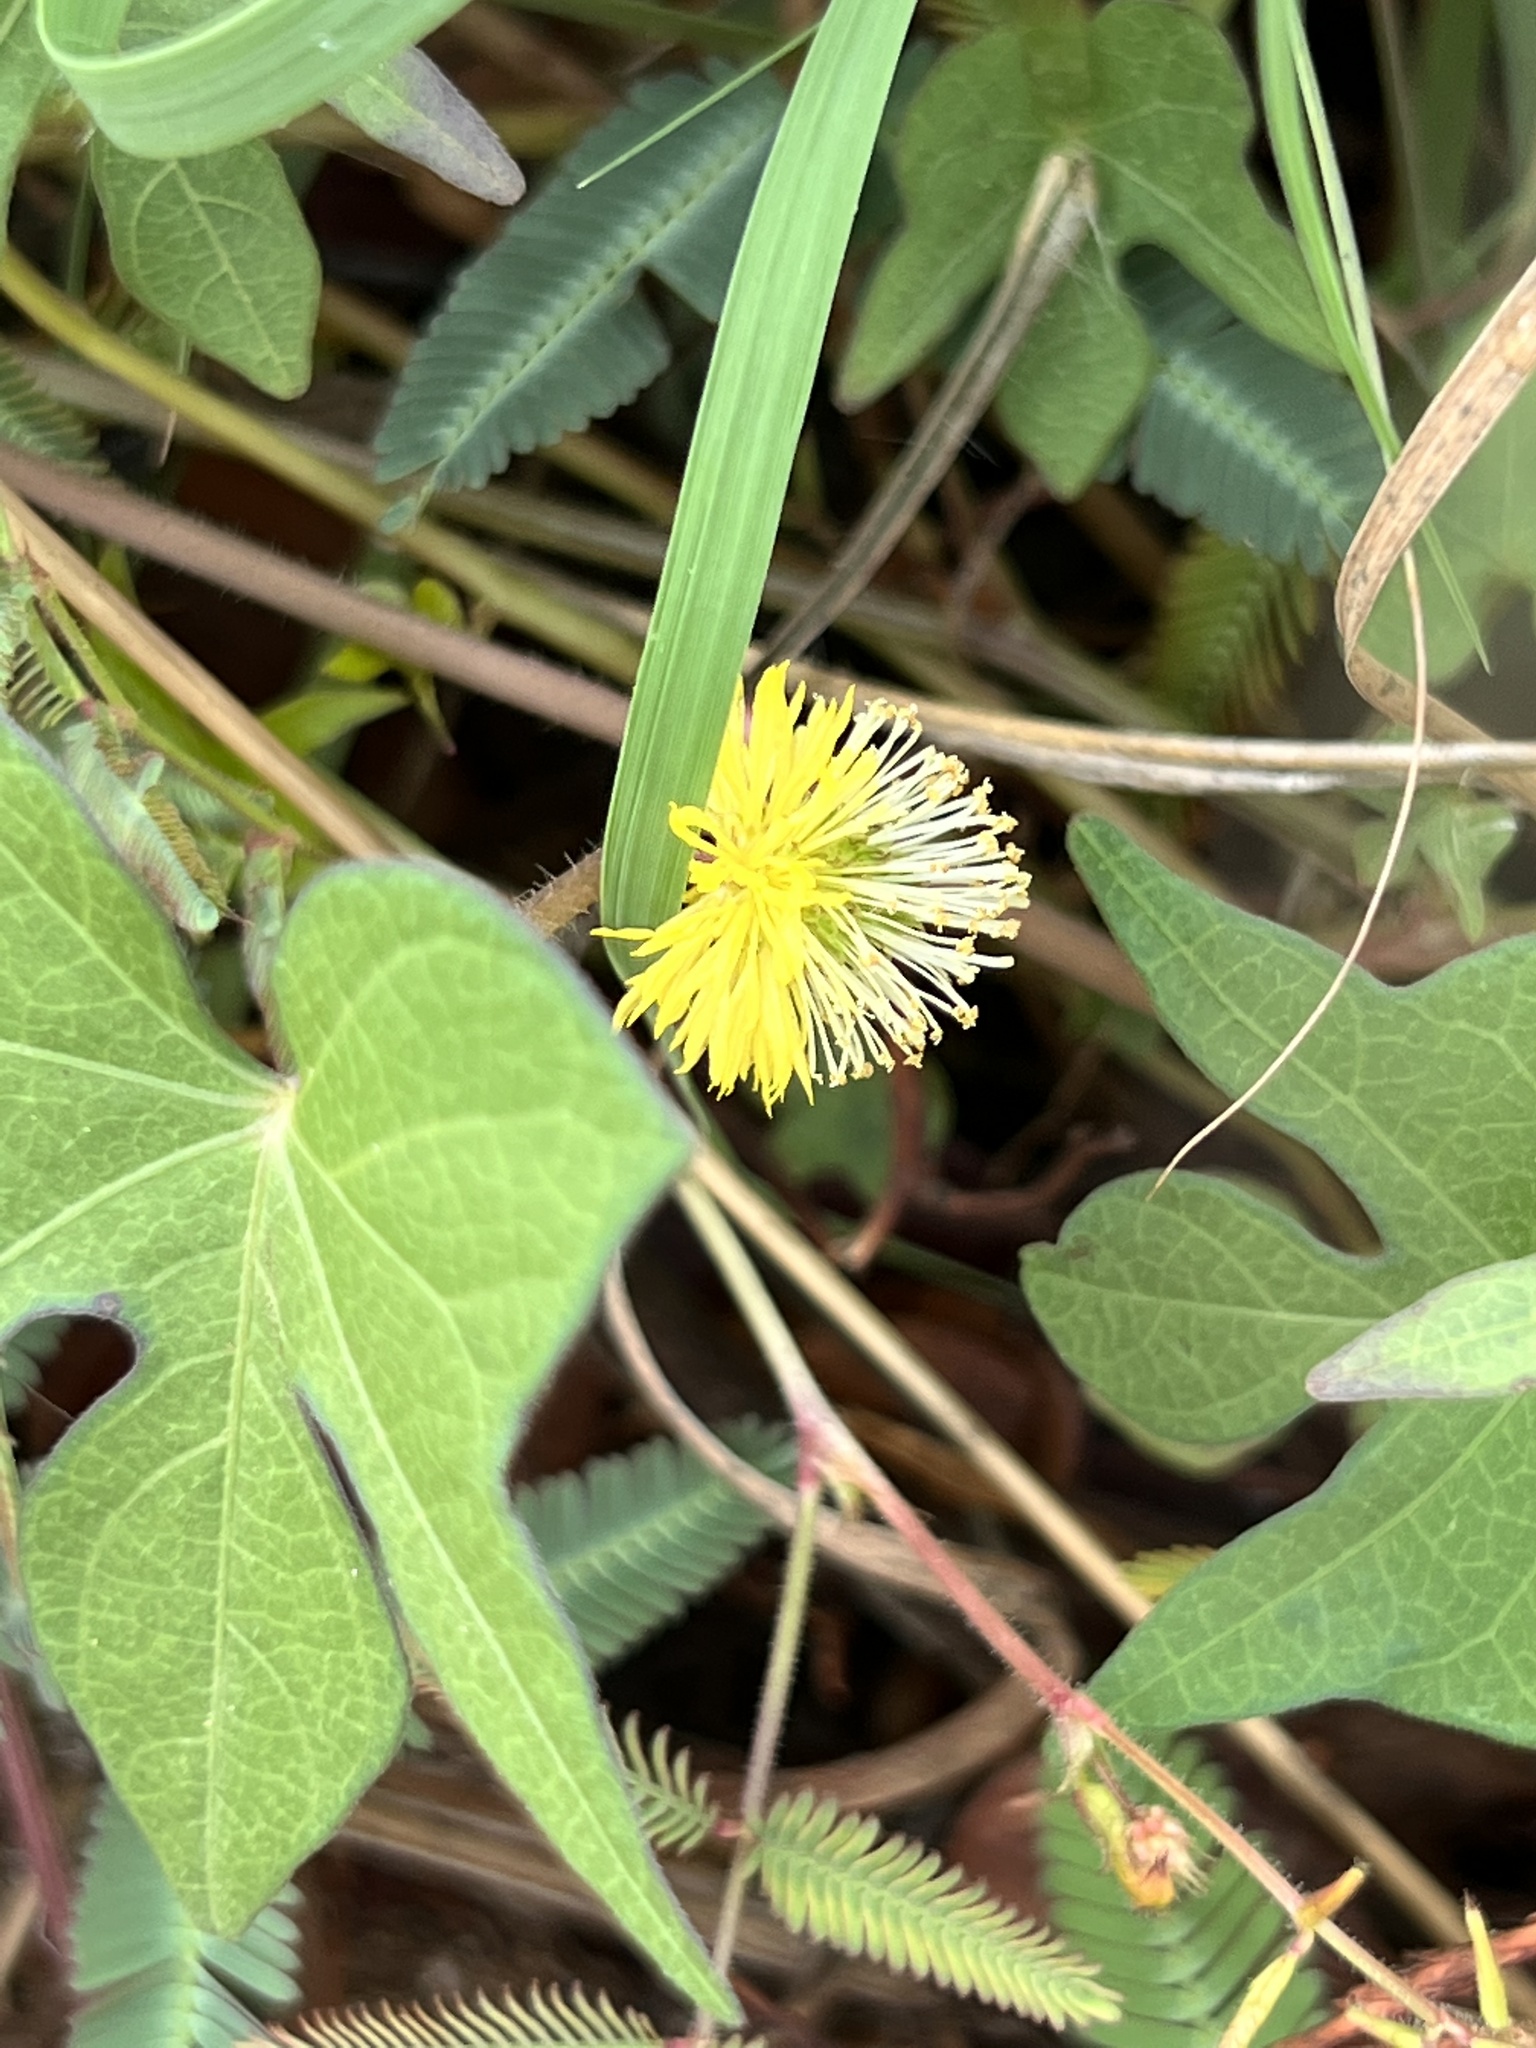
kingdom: Plantae
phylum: Tracheophyta
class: Magnoliopsida
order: Fabales
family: Fabaceae
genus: Neptunia
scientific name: Neptunia pubescens
